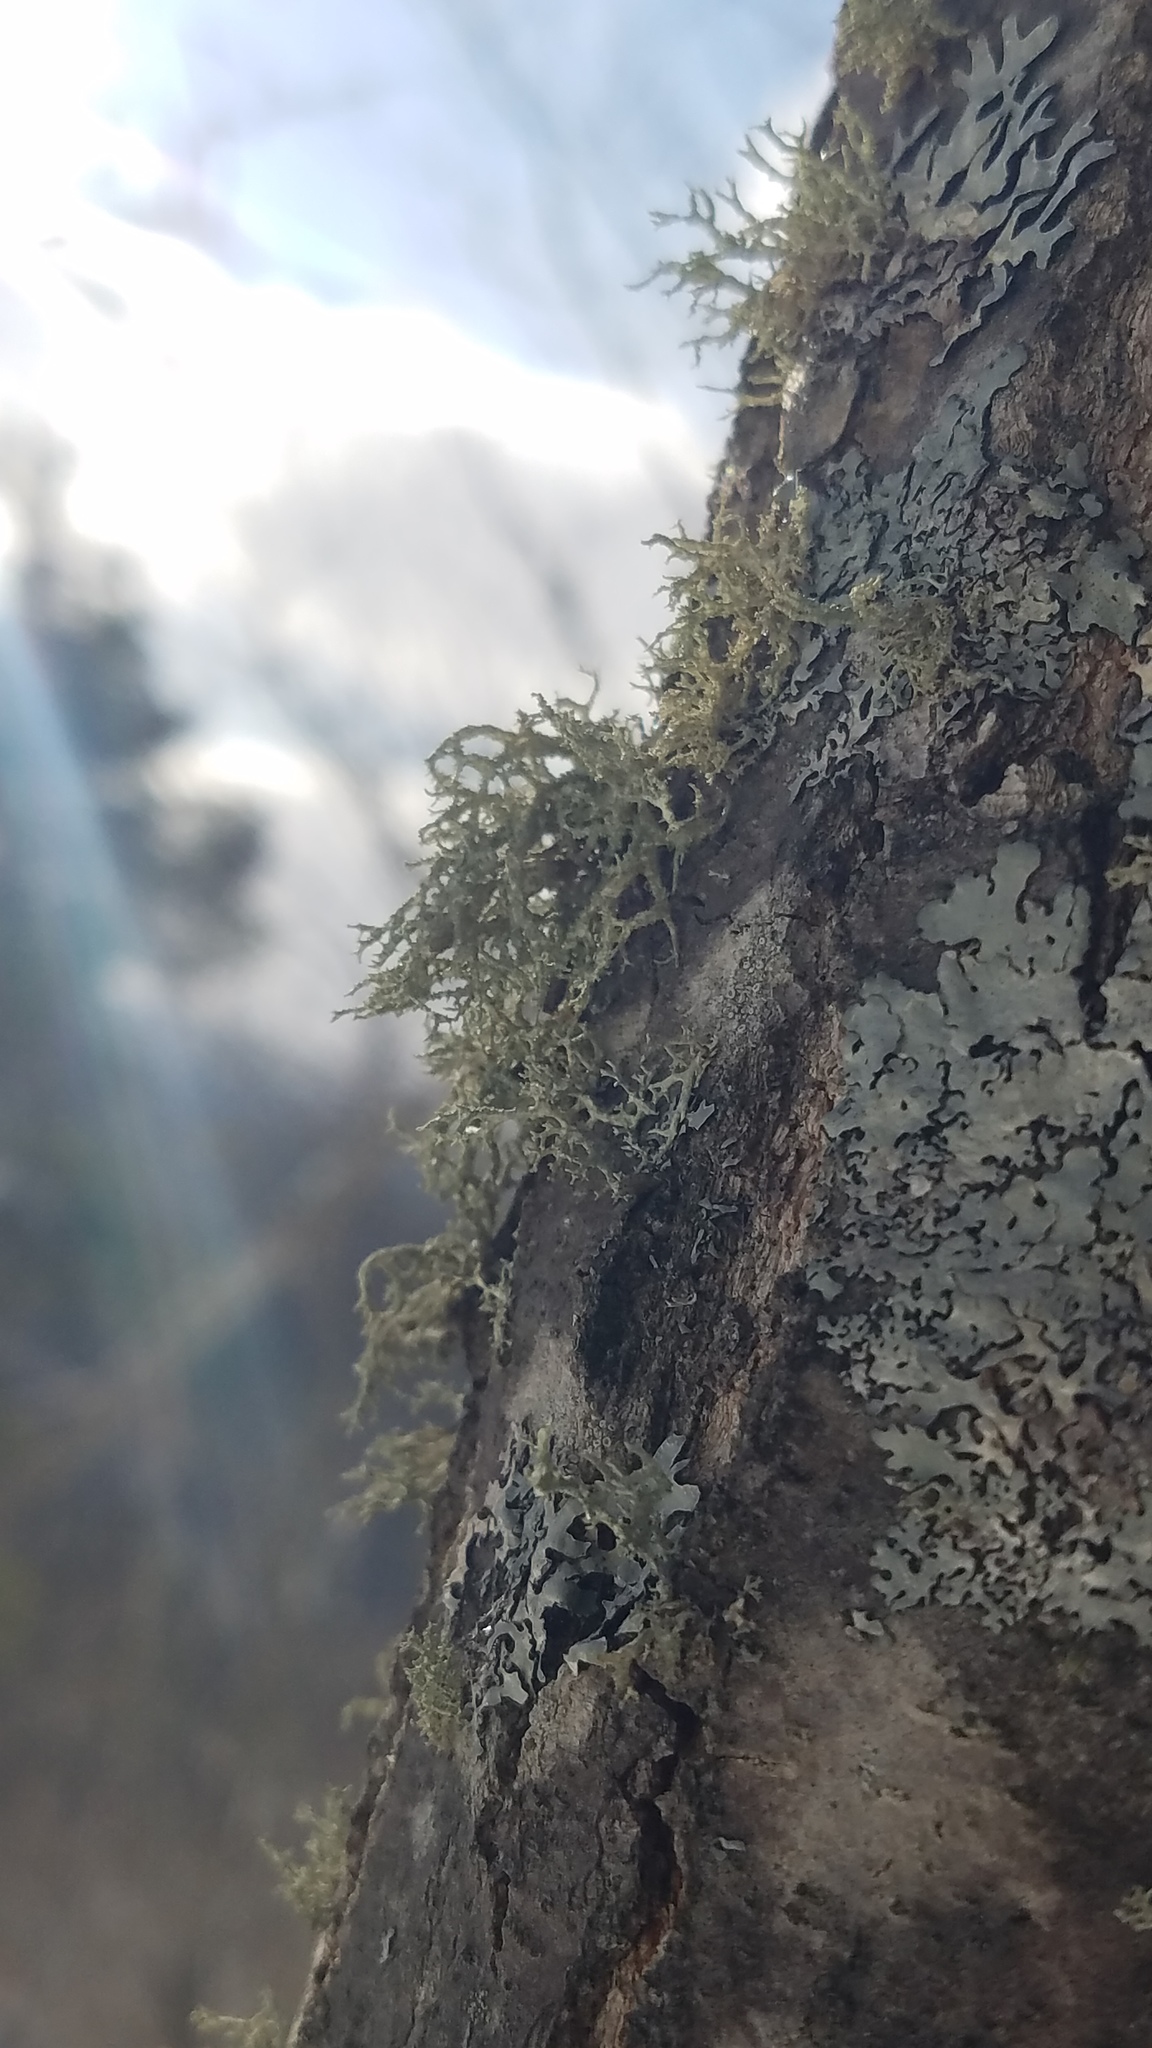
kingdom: Fungi
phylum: Ascomycota
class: Lecanoromycetes
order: Lecanorales
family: Parmeliaceae
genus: Evernia
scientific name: Evernia mesomorpha
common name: Boreal oak moss lichen
